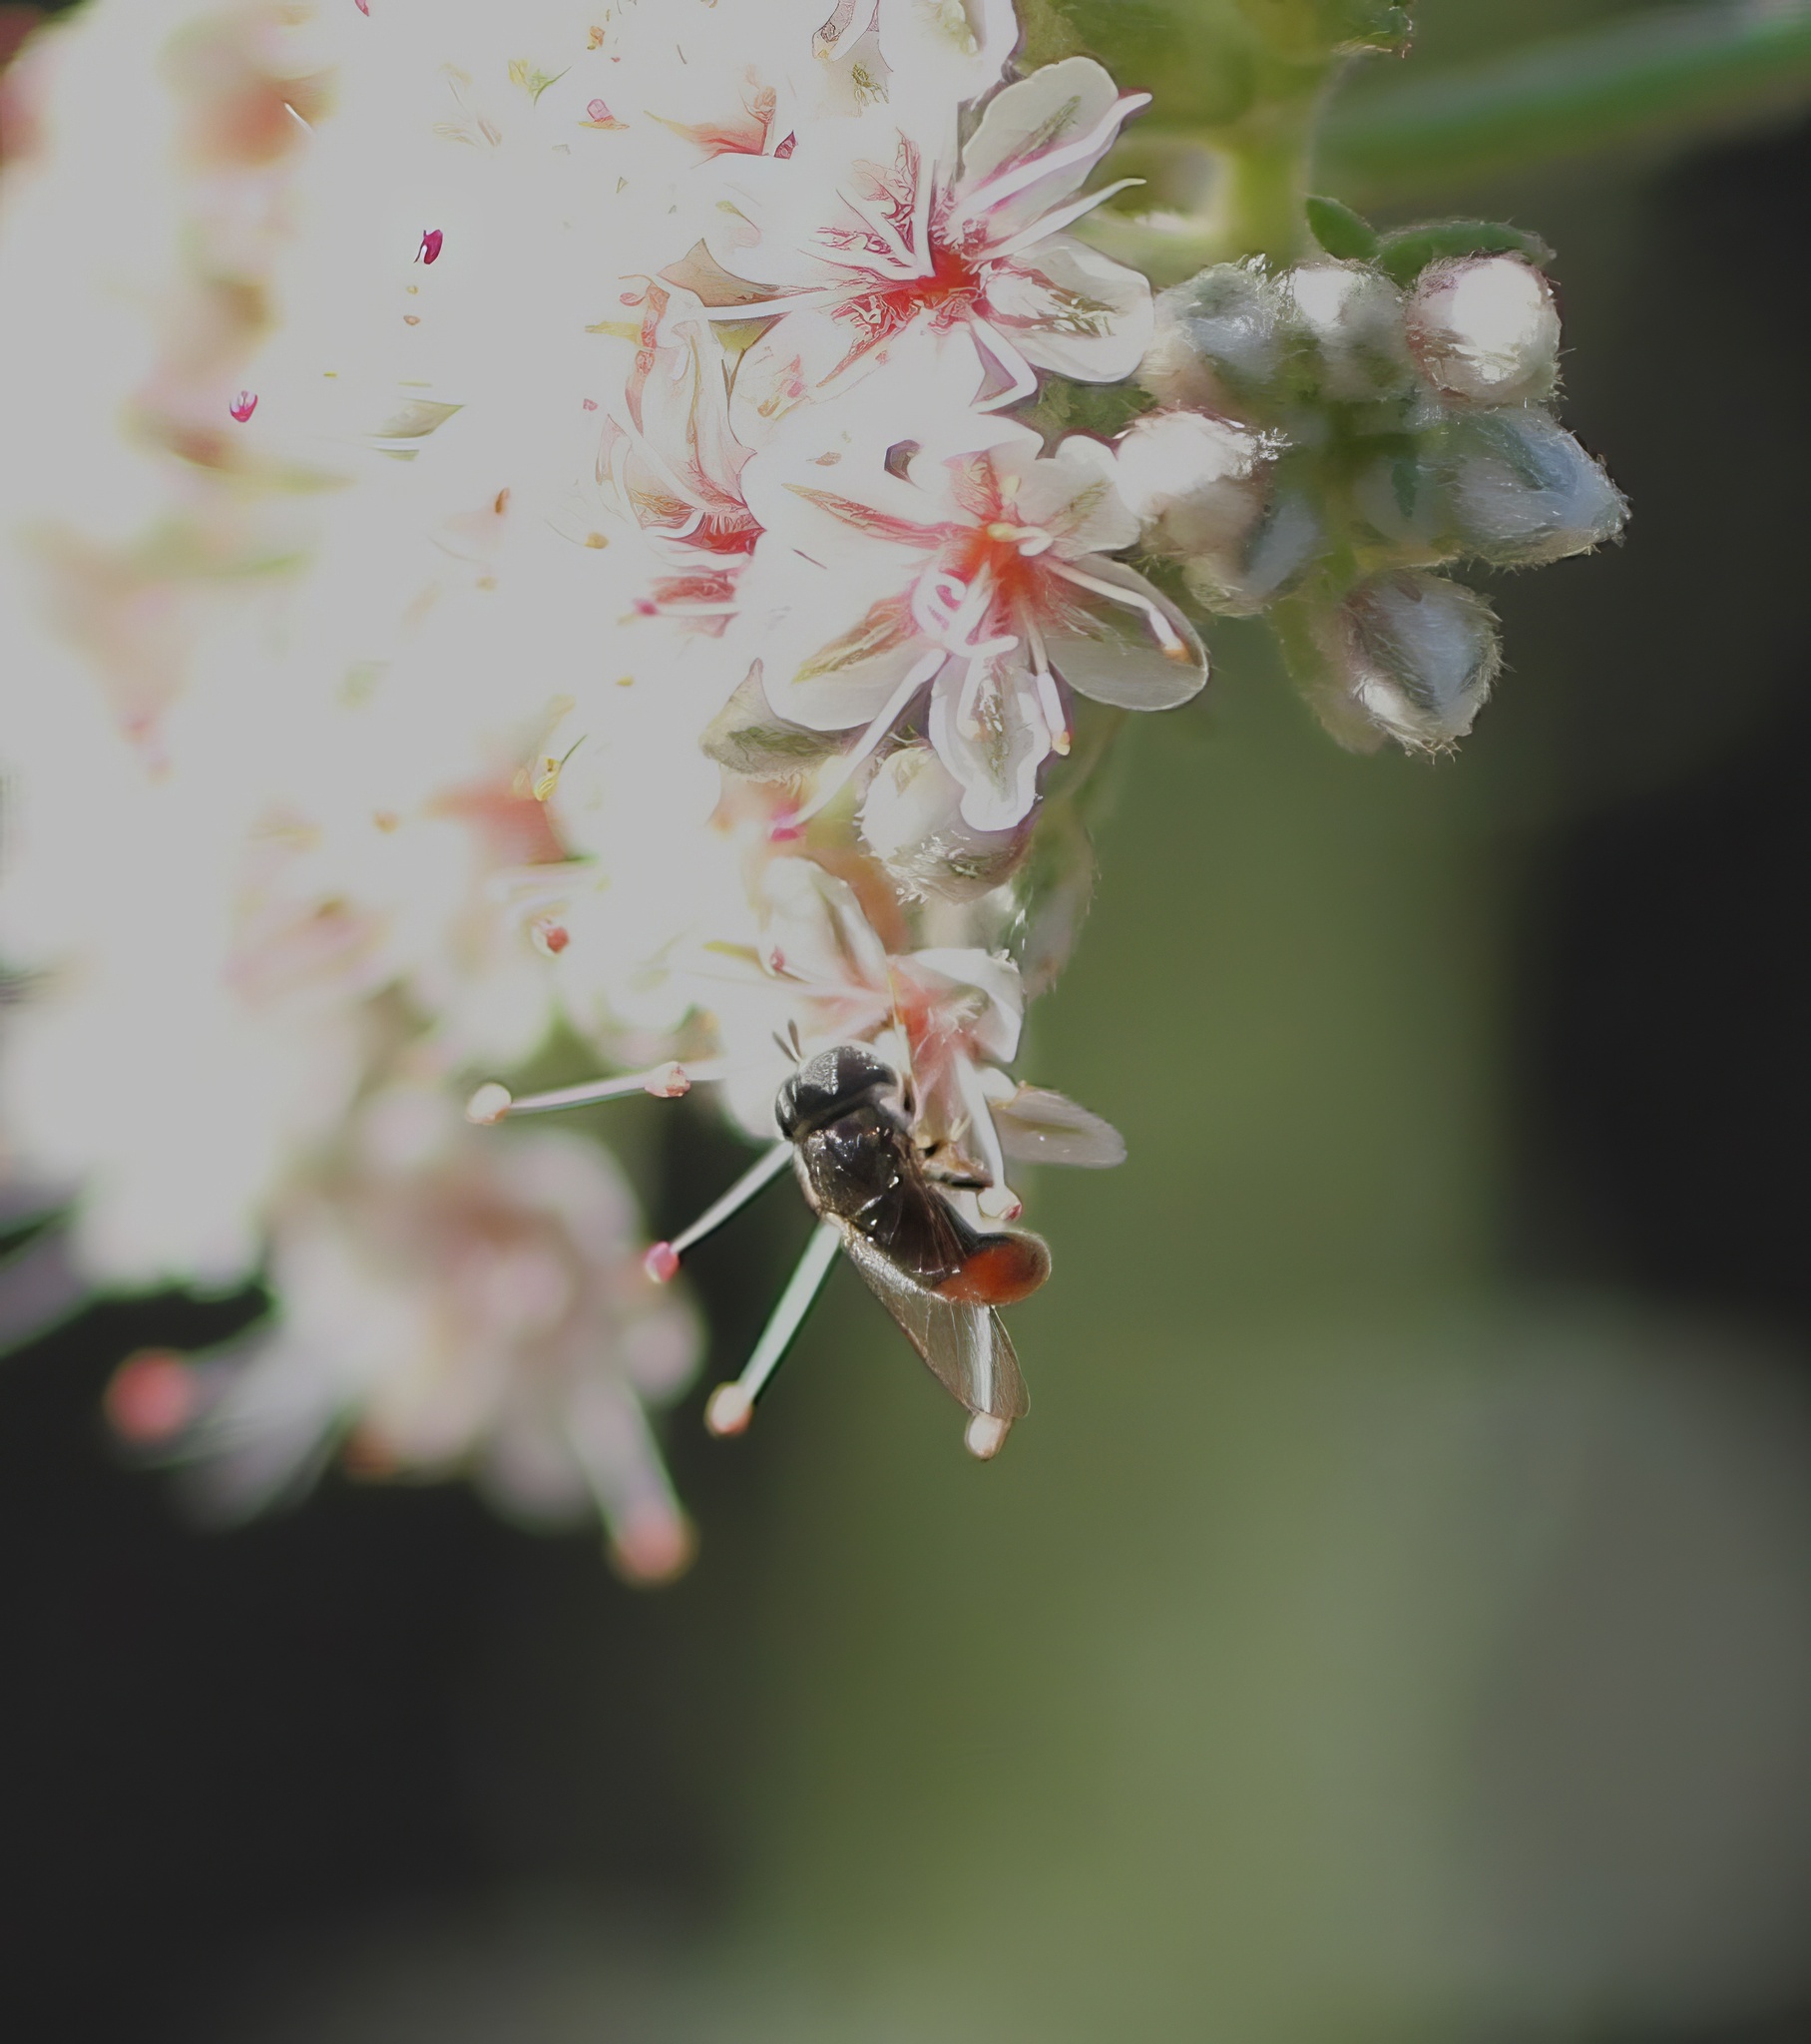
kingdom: Animalia
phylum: Arthropoda
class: Insecta
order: Diptera
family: Syrphidae
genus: Paragus
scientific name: Paragus haemorrhous
